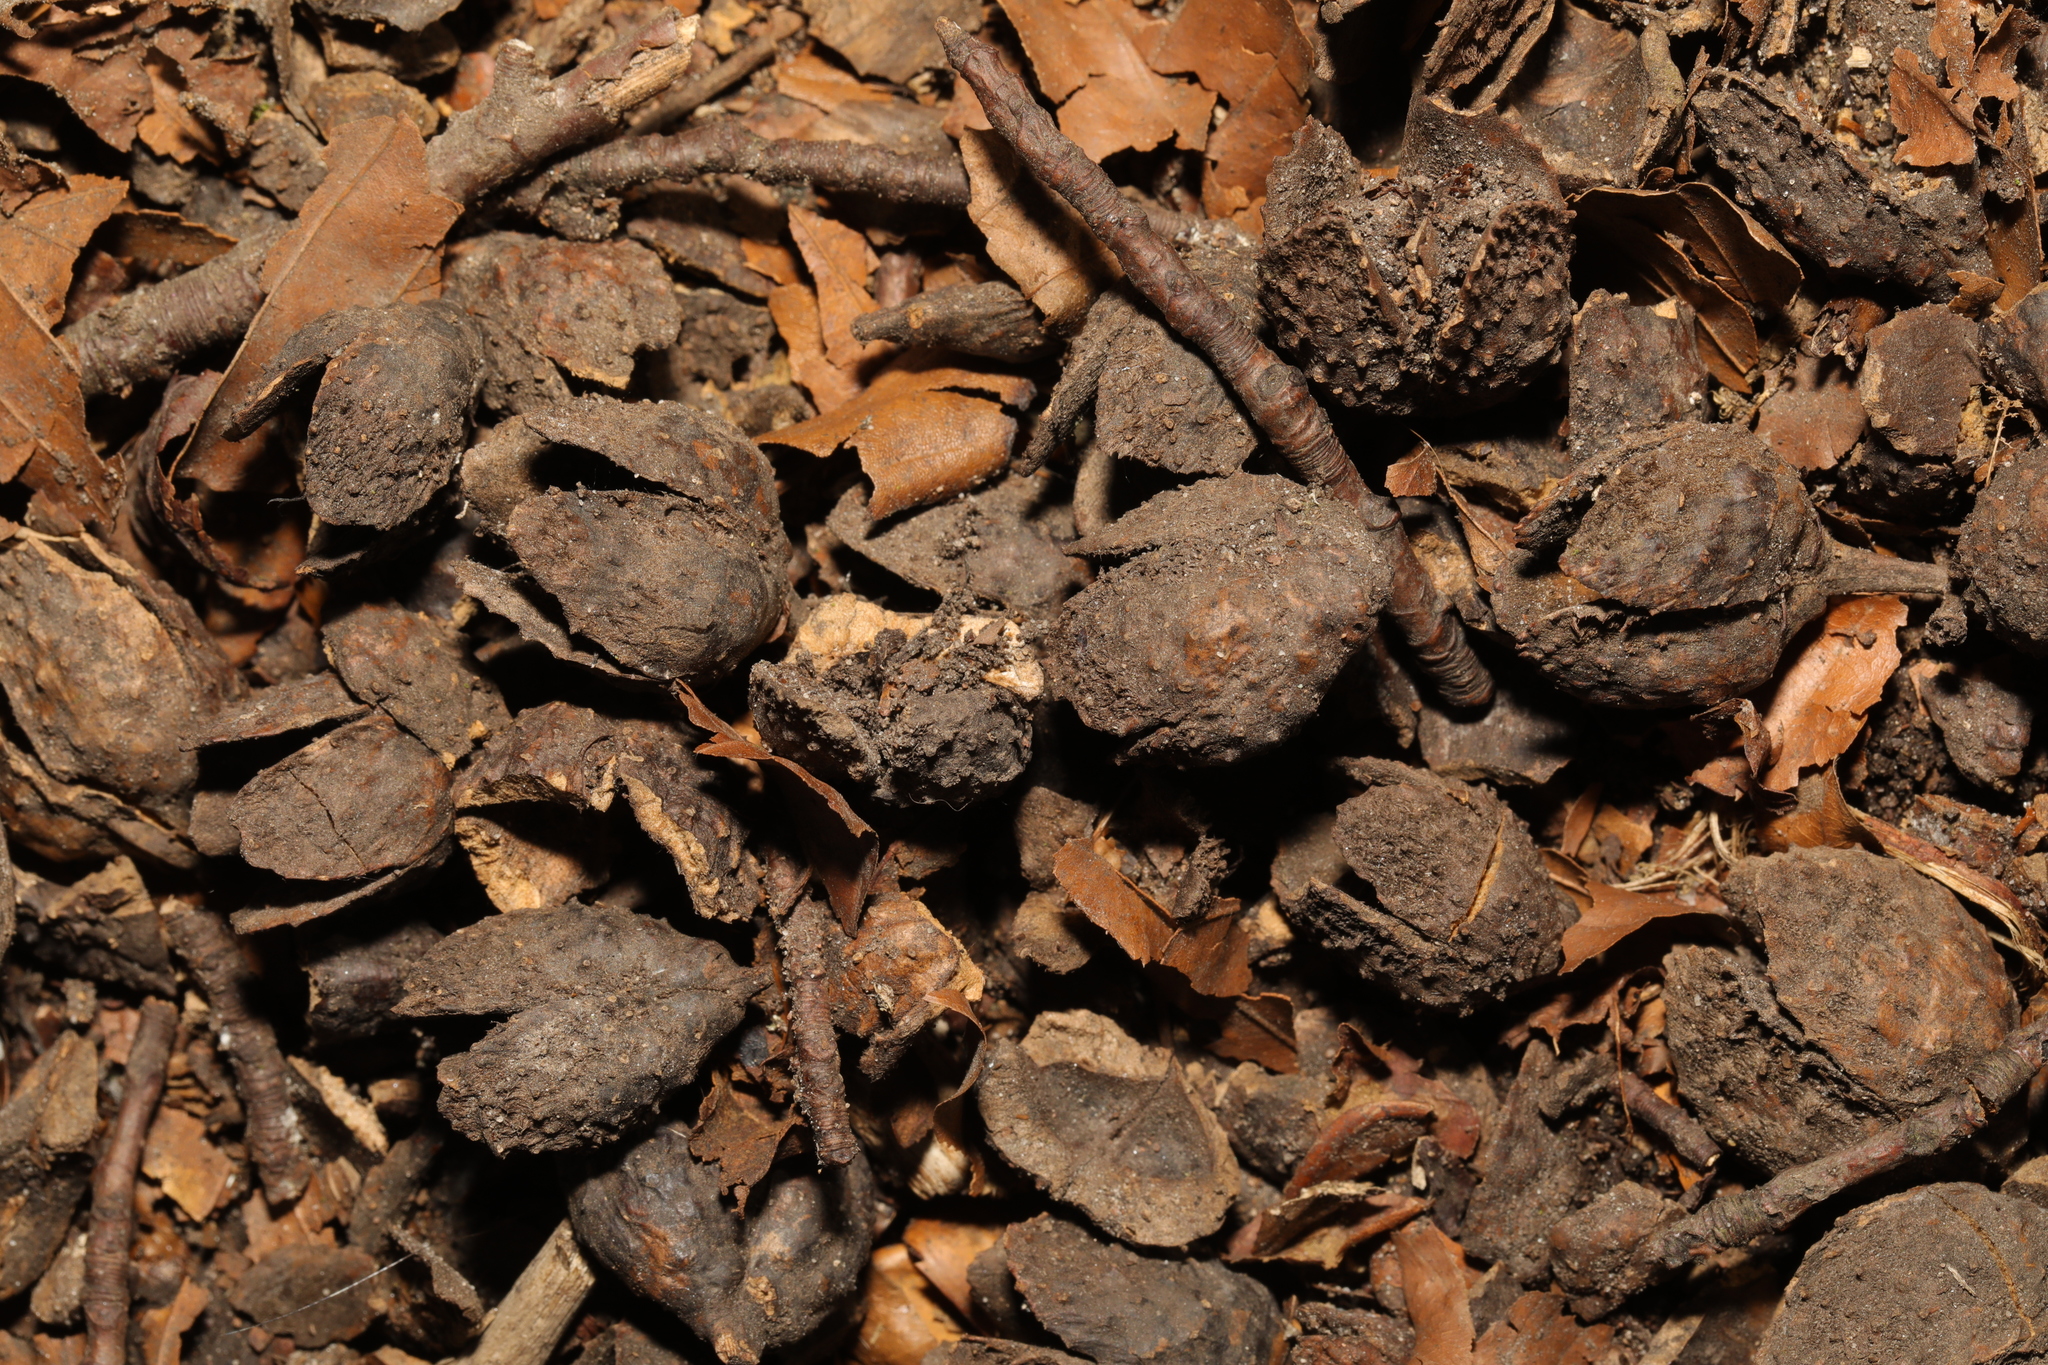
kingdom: Plantae
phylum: Tracheophyta
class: Magnoliopsida
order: Fagales
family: Fagaceae
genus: Fagus
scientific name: Fagus sylvatica
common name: Beech
